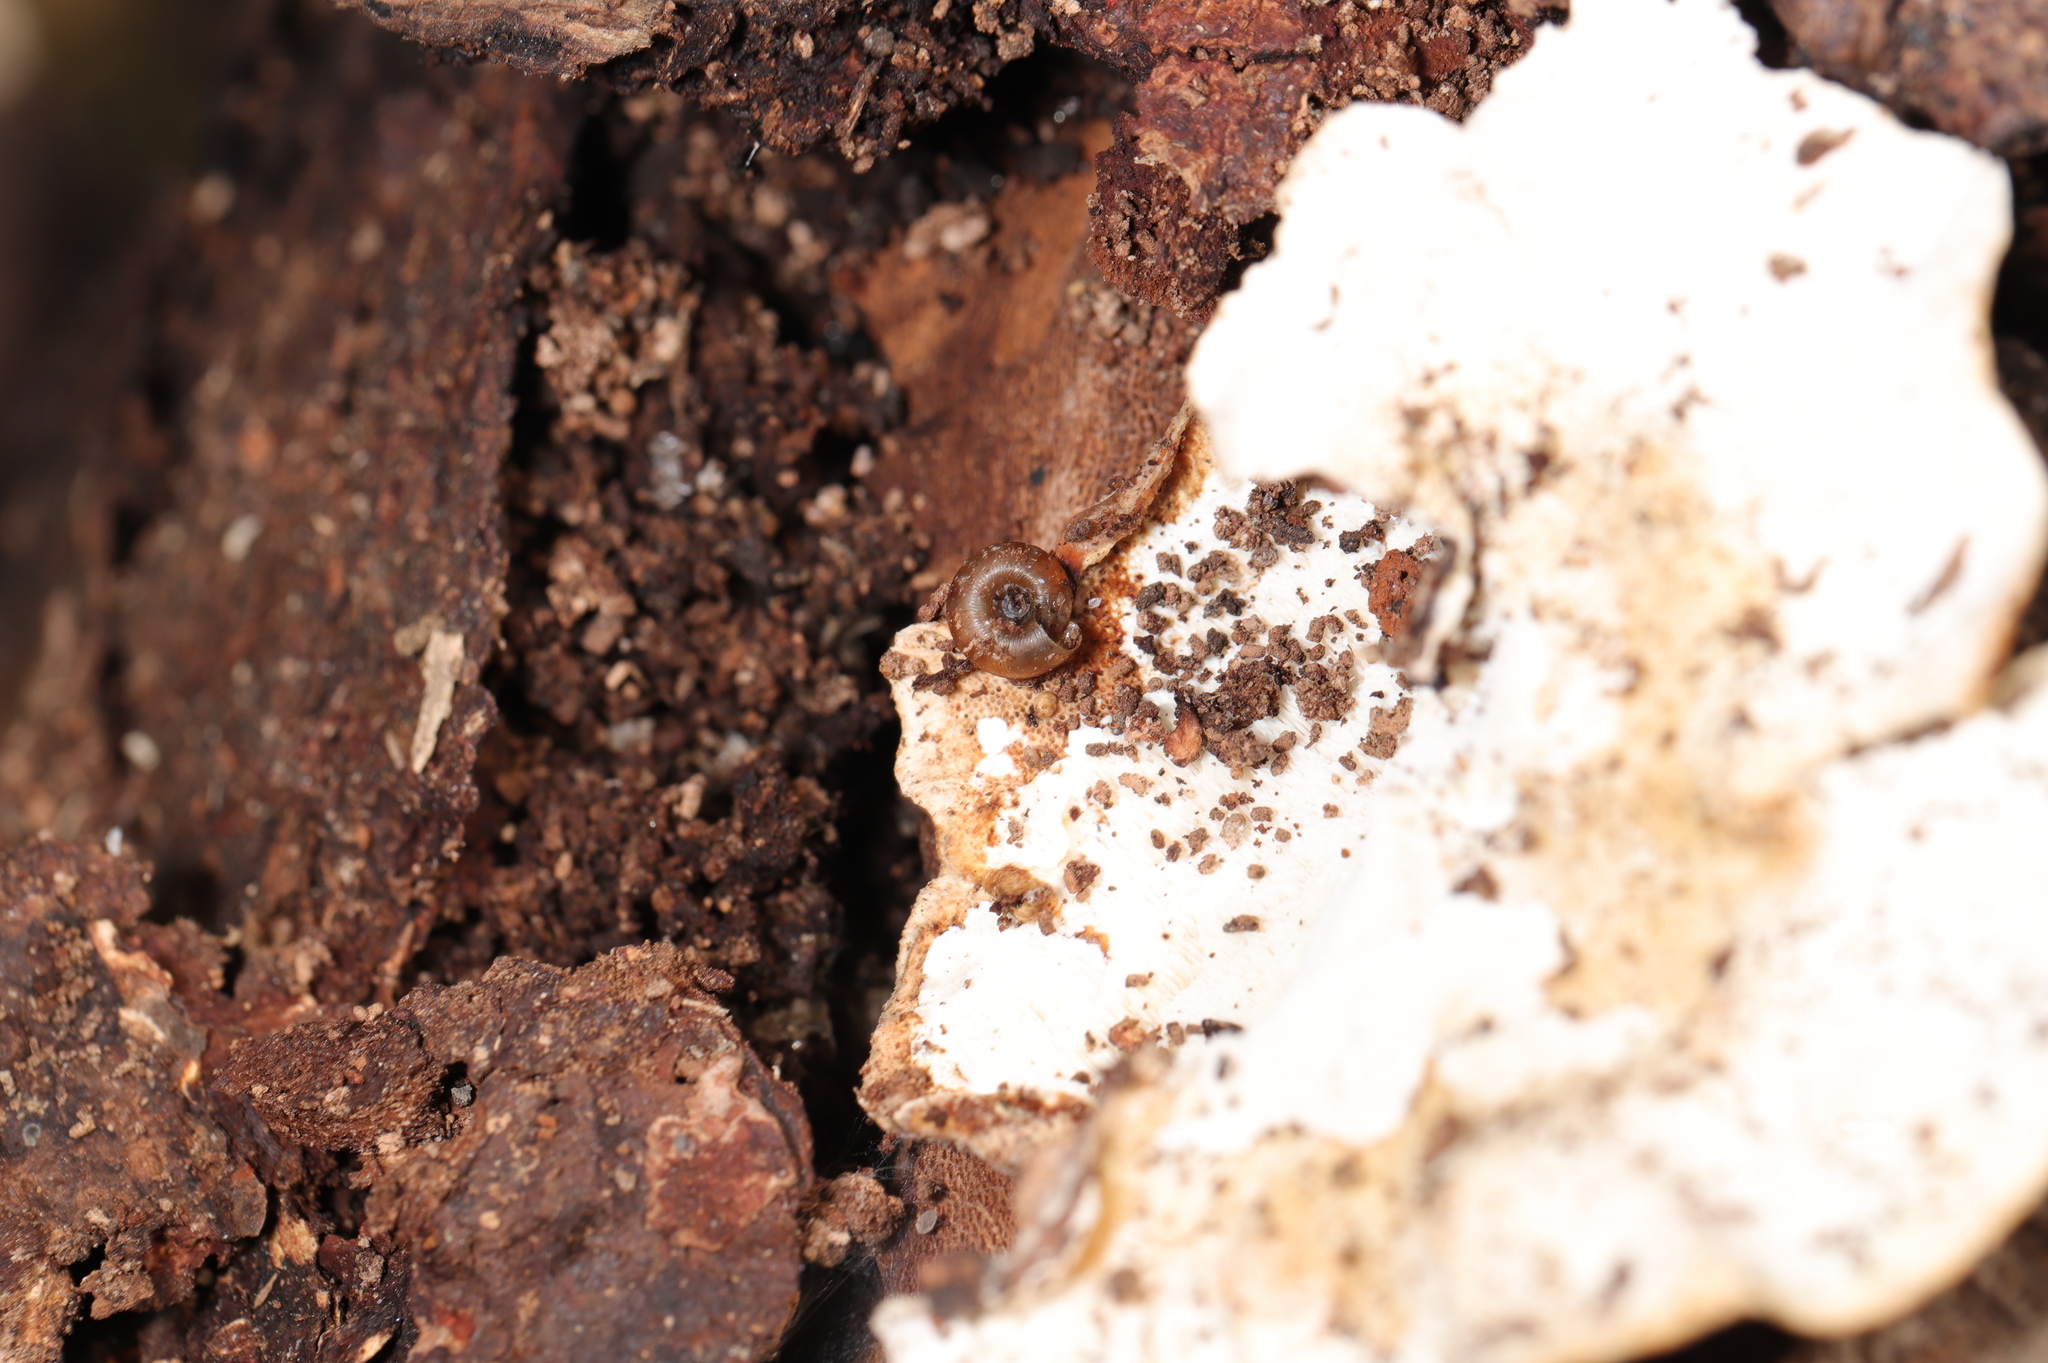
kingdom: Animalia
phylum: Mollusca
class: Gastropoda
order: Stylommatophora
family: Discidae
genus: Discus
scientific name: Discus rotundatus
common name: Rounded snail
